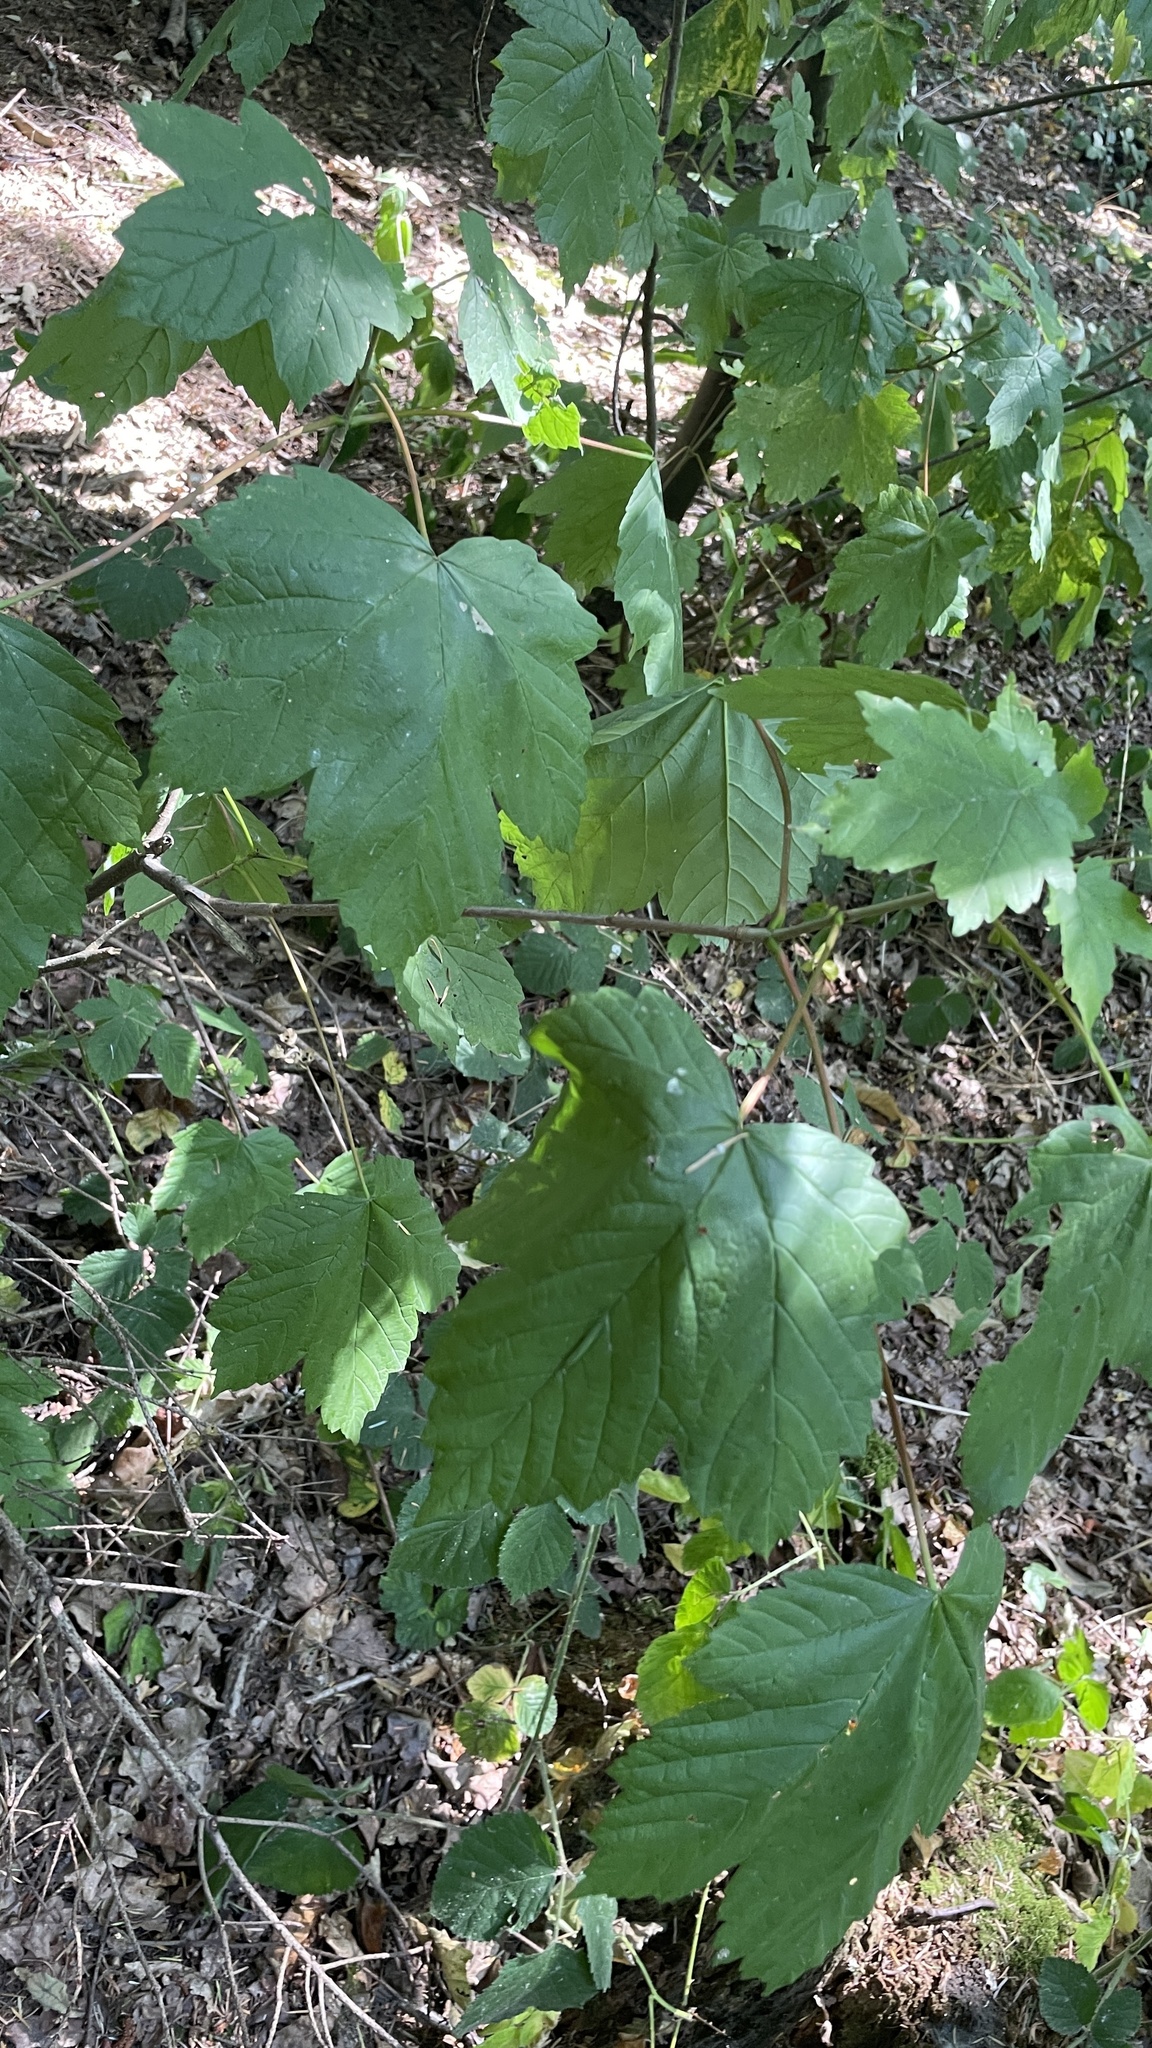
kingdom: Plantae
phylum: Tracheophyta
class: Magnoliopsida
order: Sapindales
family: Sapindaceae
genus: Acer
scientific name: Acer pseudoplatanus
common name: Sycamore
